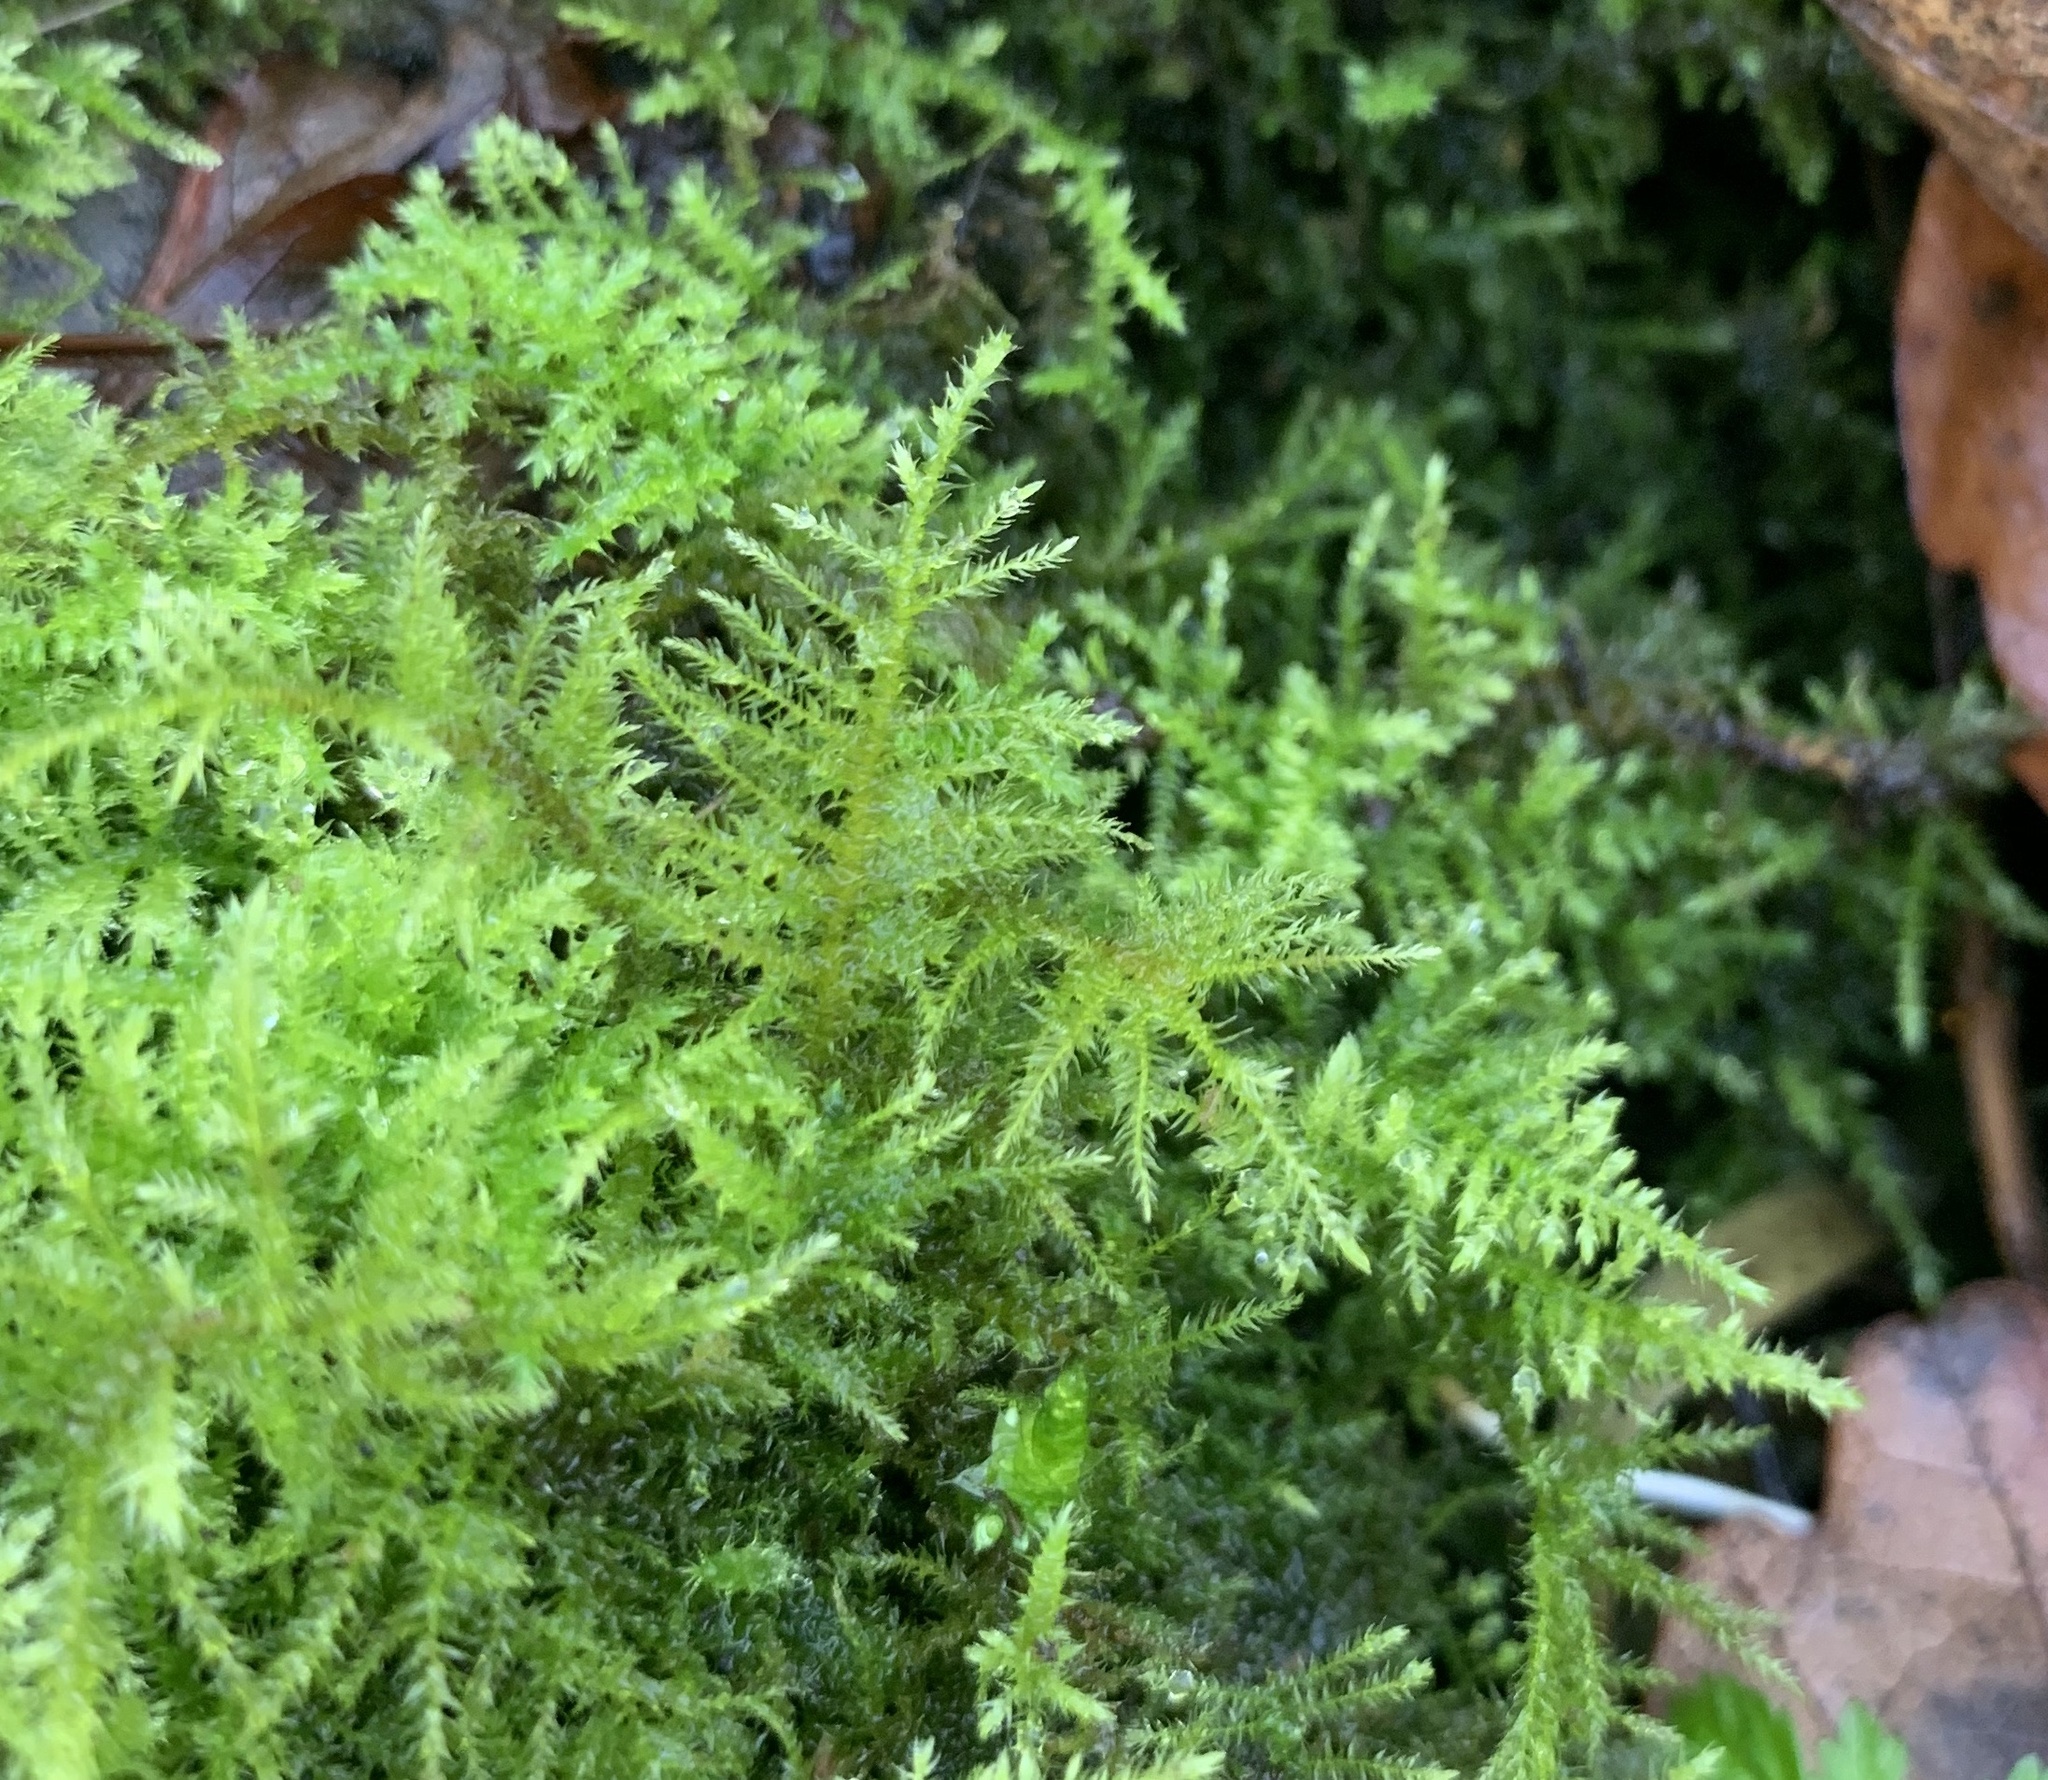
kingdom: Plantae
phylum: Bryophyta
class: Bryopsida
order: Hypnales
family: Brachytheciaceae
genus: Kindbergia
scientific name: Kindbergia praelonga
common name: Slender beaked moss
